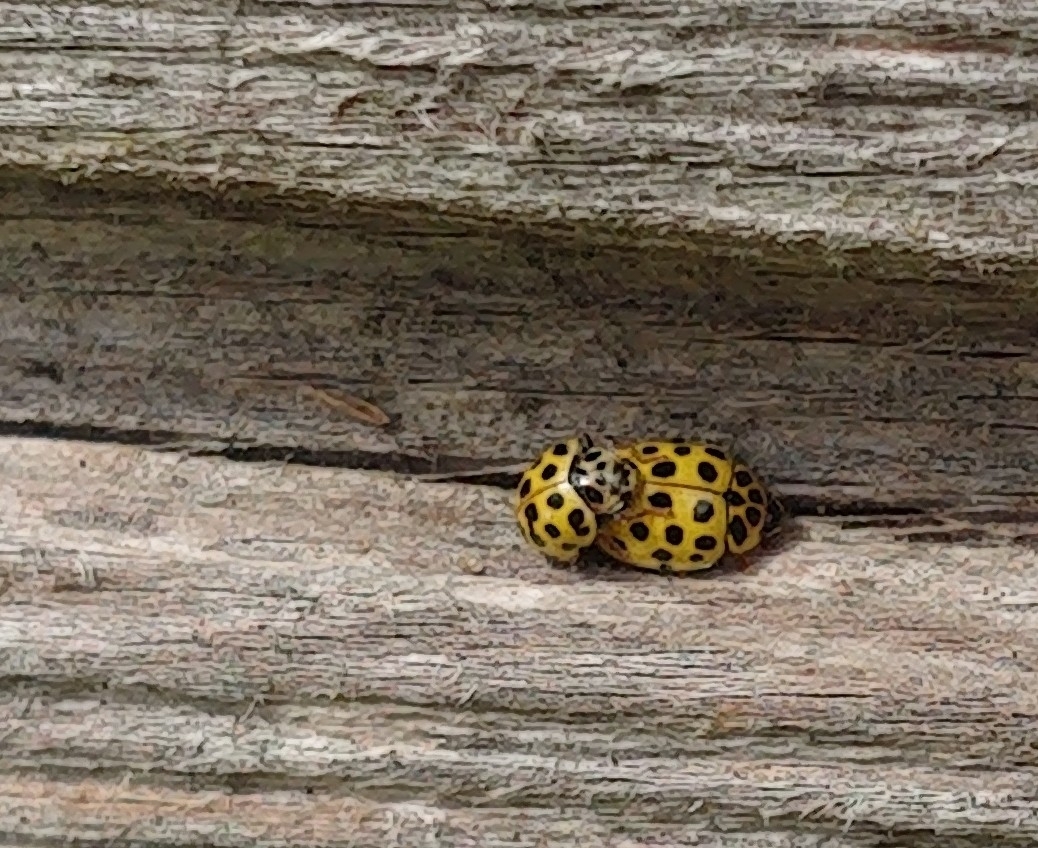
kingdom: Animalia
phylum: Arthropoda
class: Insecta
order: Coleoptera
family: Coccinellidae
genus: Psyllobora
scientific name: Psyllobora vigintiduopunctata
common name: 22-spot ladybird
